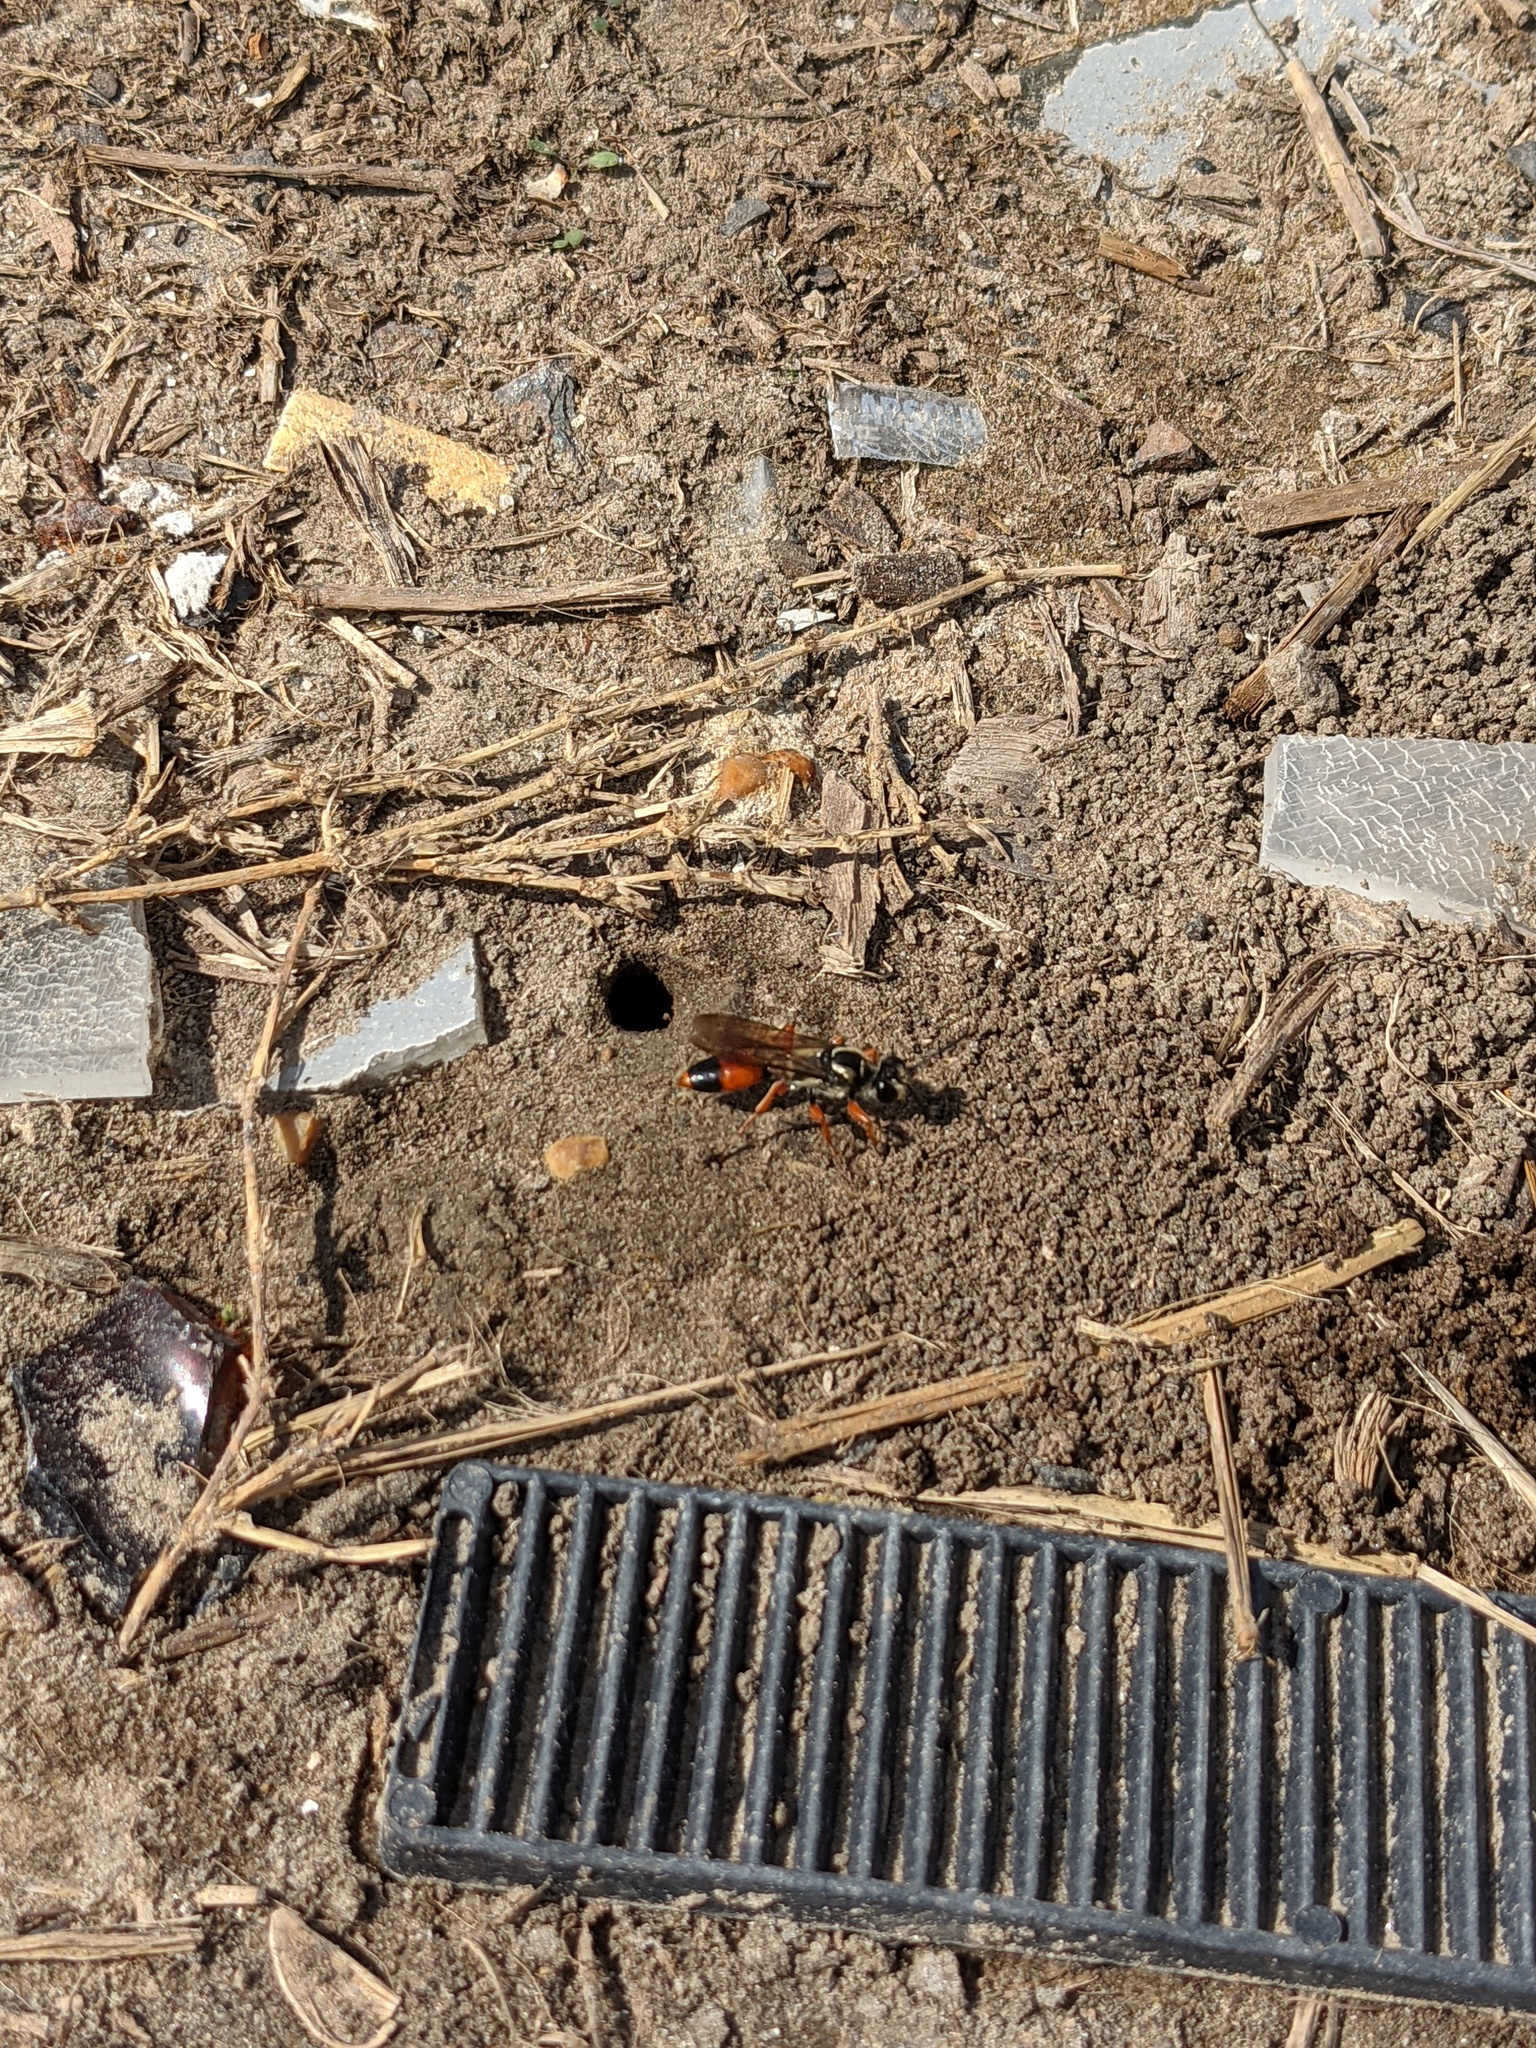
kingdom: Animalia
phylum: Arthropoda
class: Insecta
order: Hymenoptera
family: Sphecidae
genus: Sphex
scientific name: Sphex dorsalis
